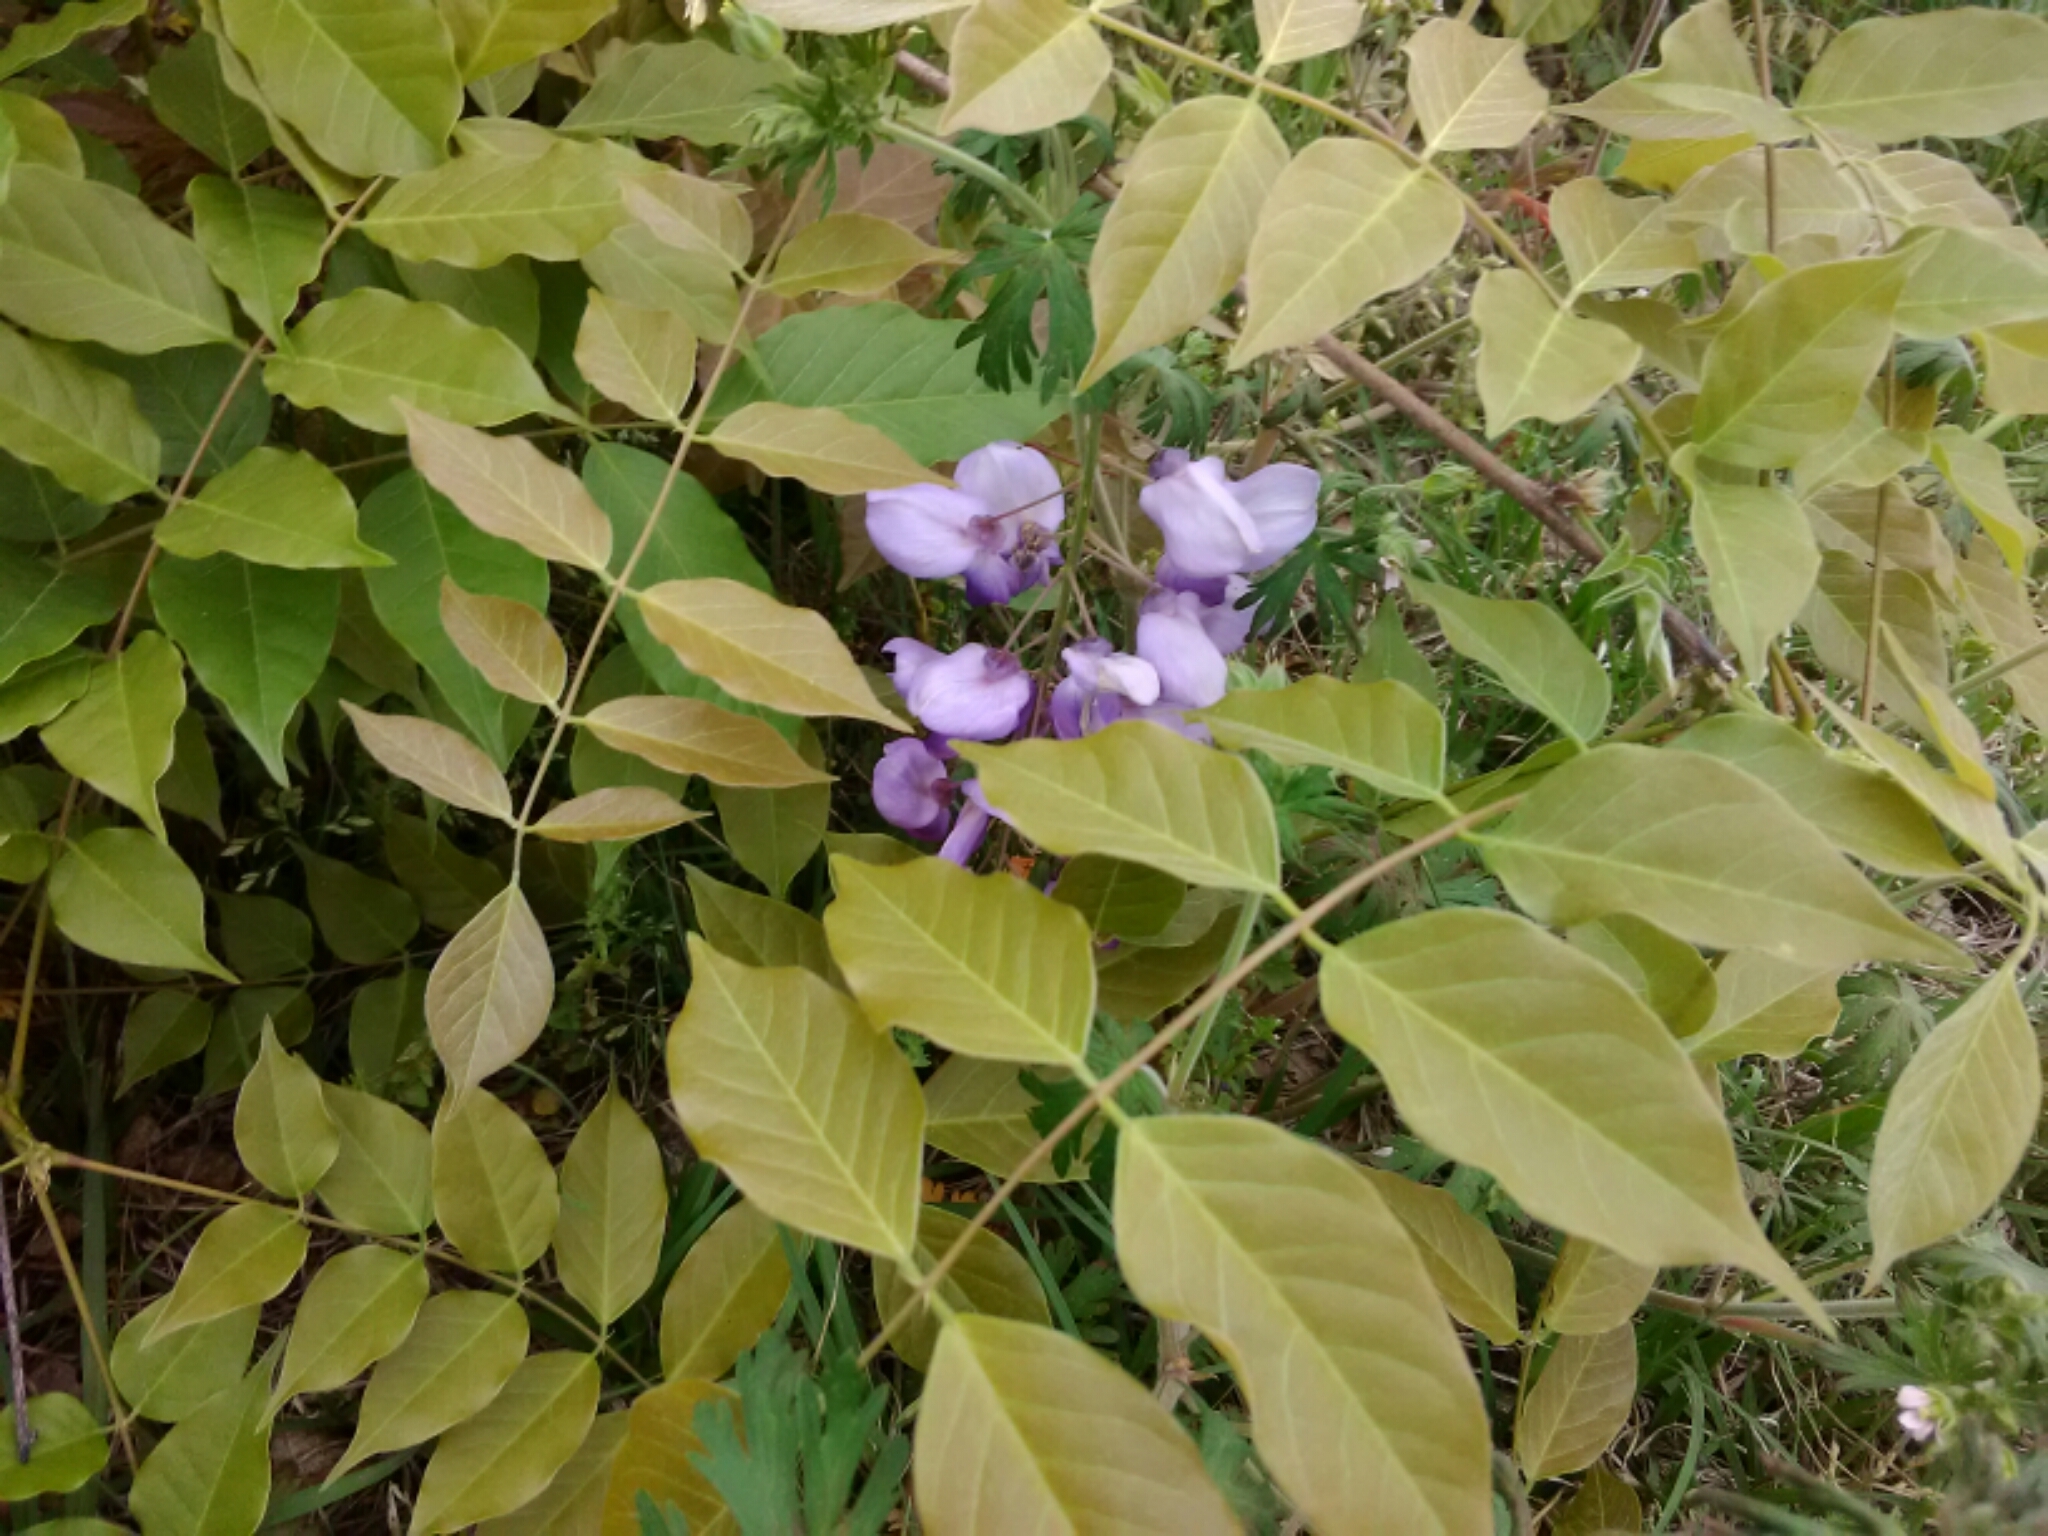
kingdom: Plantae
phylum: Tracheophyta
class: Magnoliopsida
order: Fabales
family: Fabaceae
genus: Wisteria
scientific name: Wisteria sinensis
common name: Chinese wisteria
